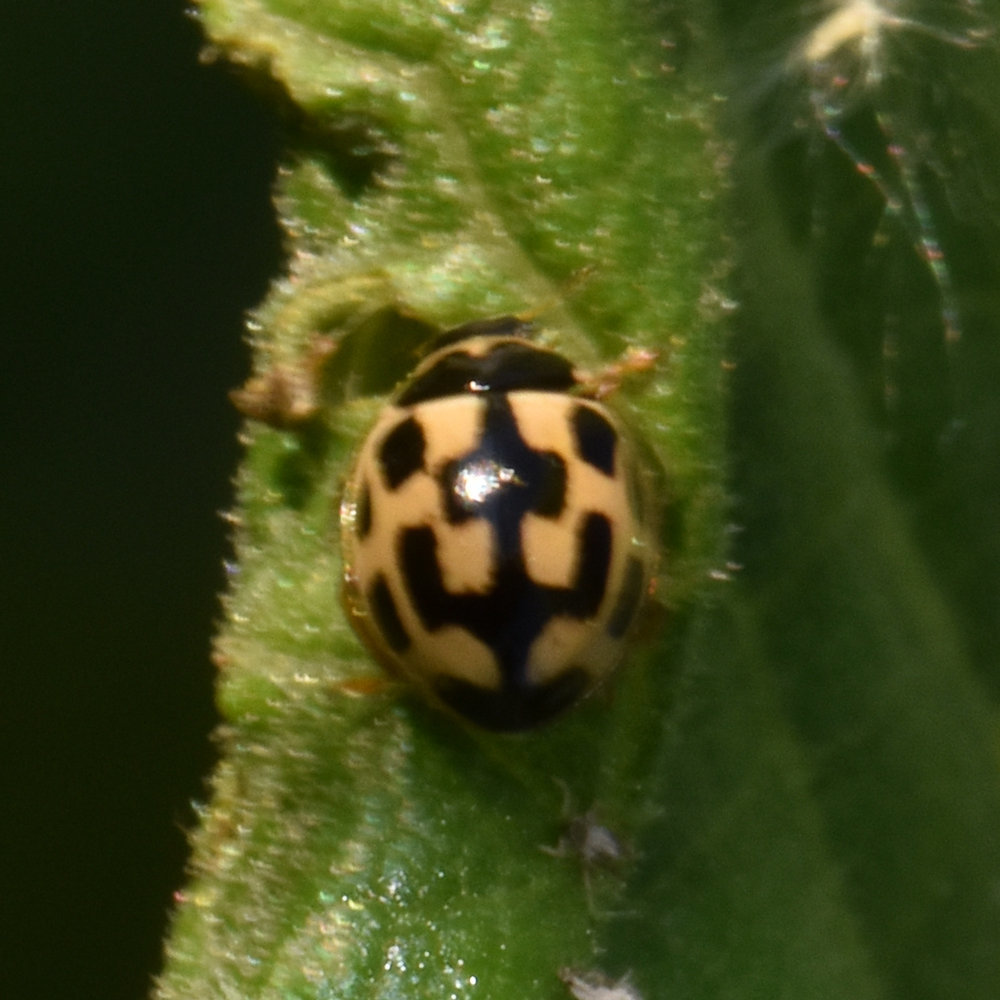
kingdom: Animalia
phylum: Arthropoda
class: Insecta
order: Coleoptera
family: Coccinellidae
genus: Propylaea
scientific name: Propylaea quatuordecimpunctata
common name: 14-spotted ladybird beetle
